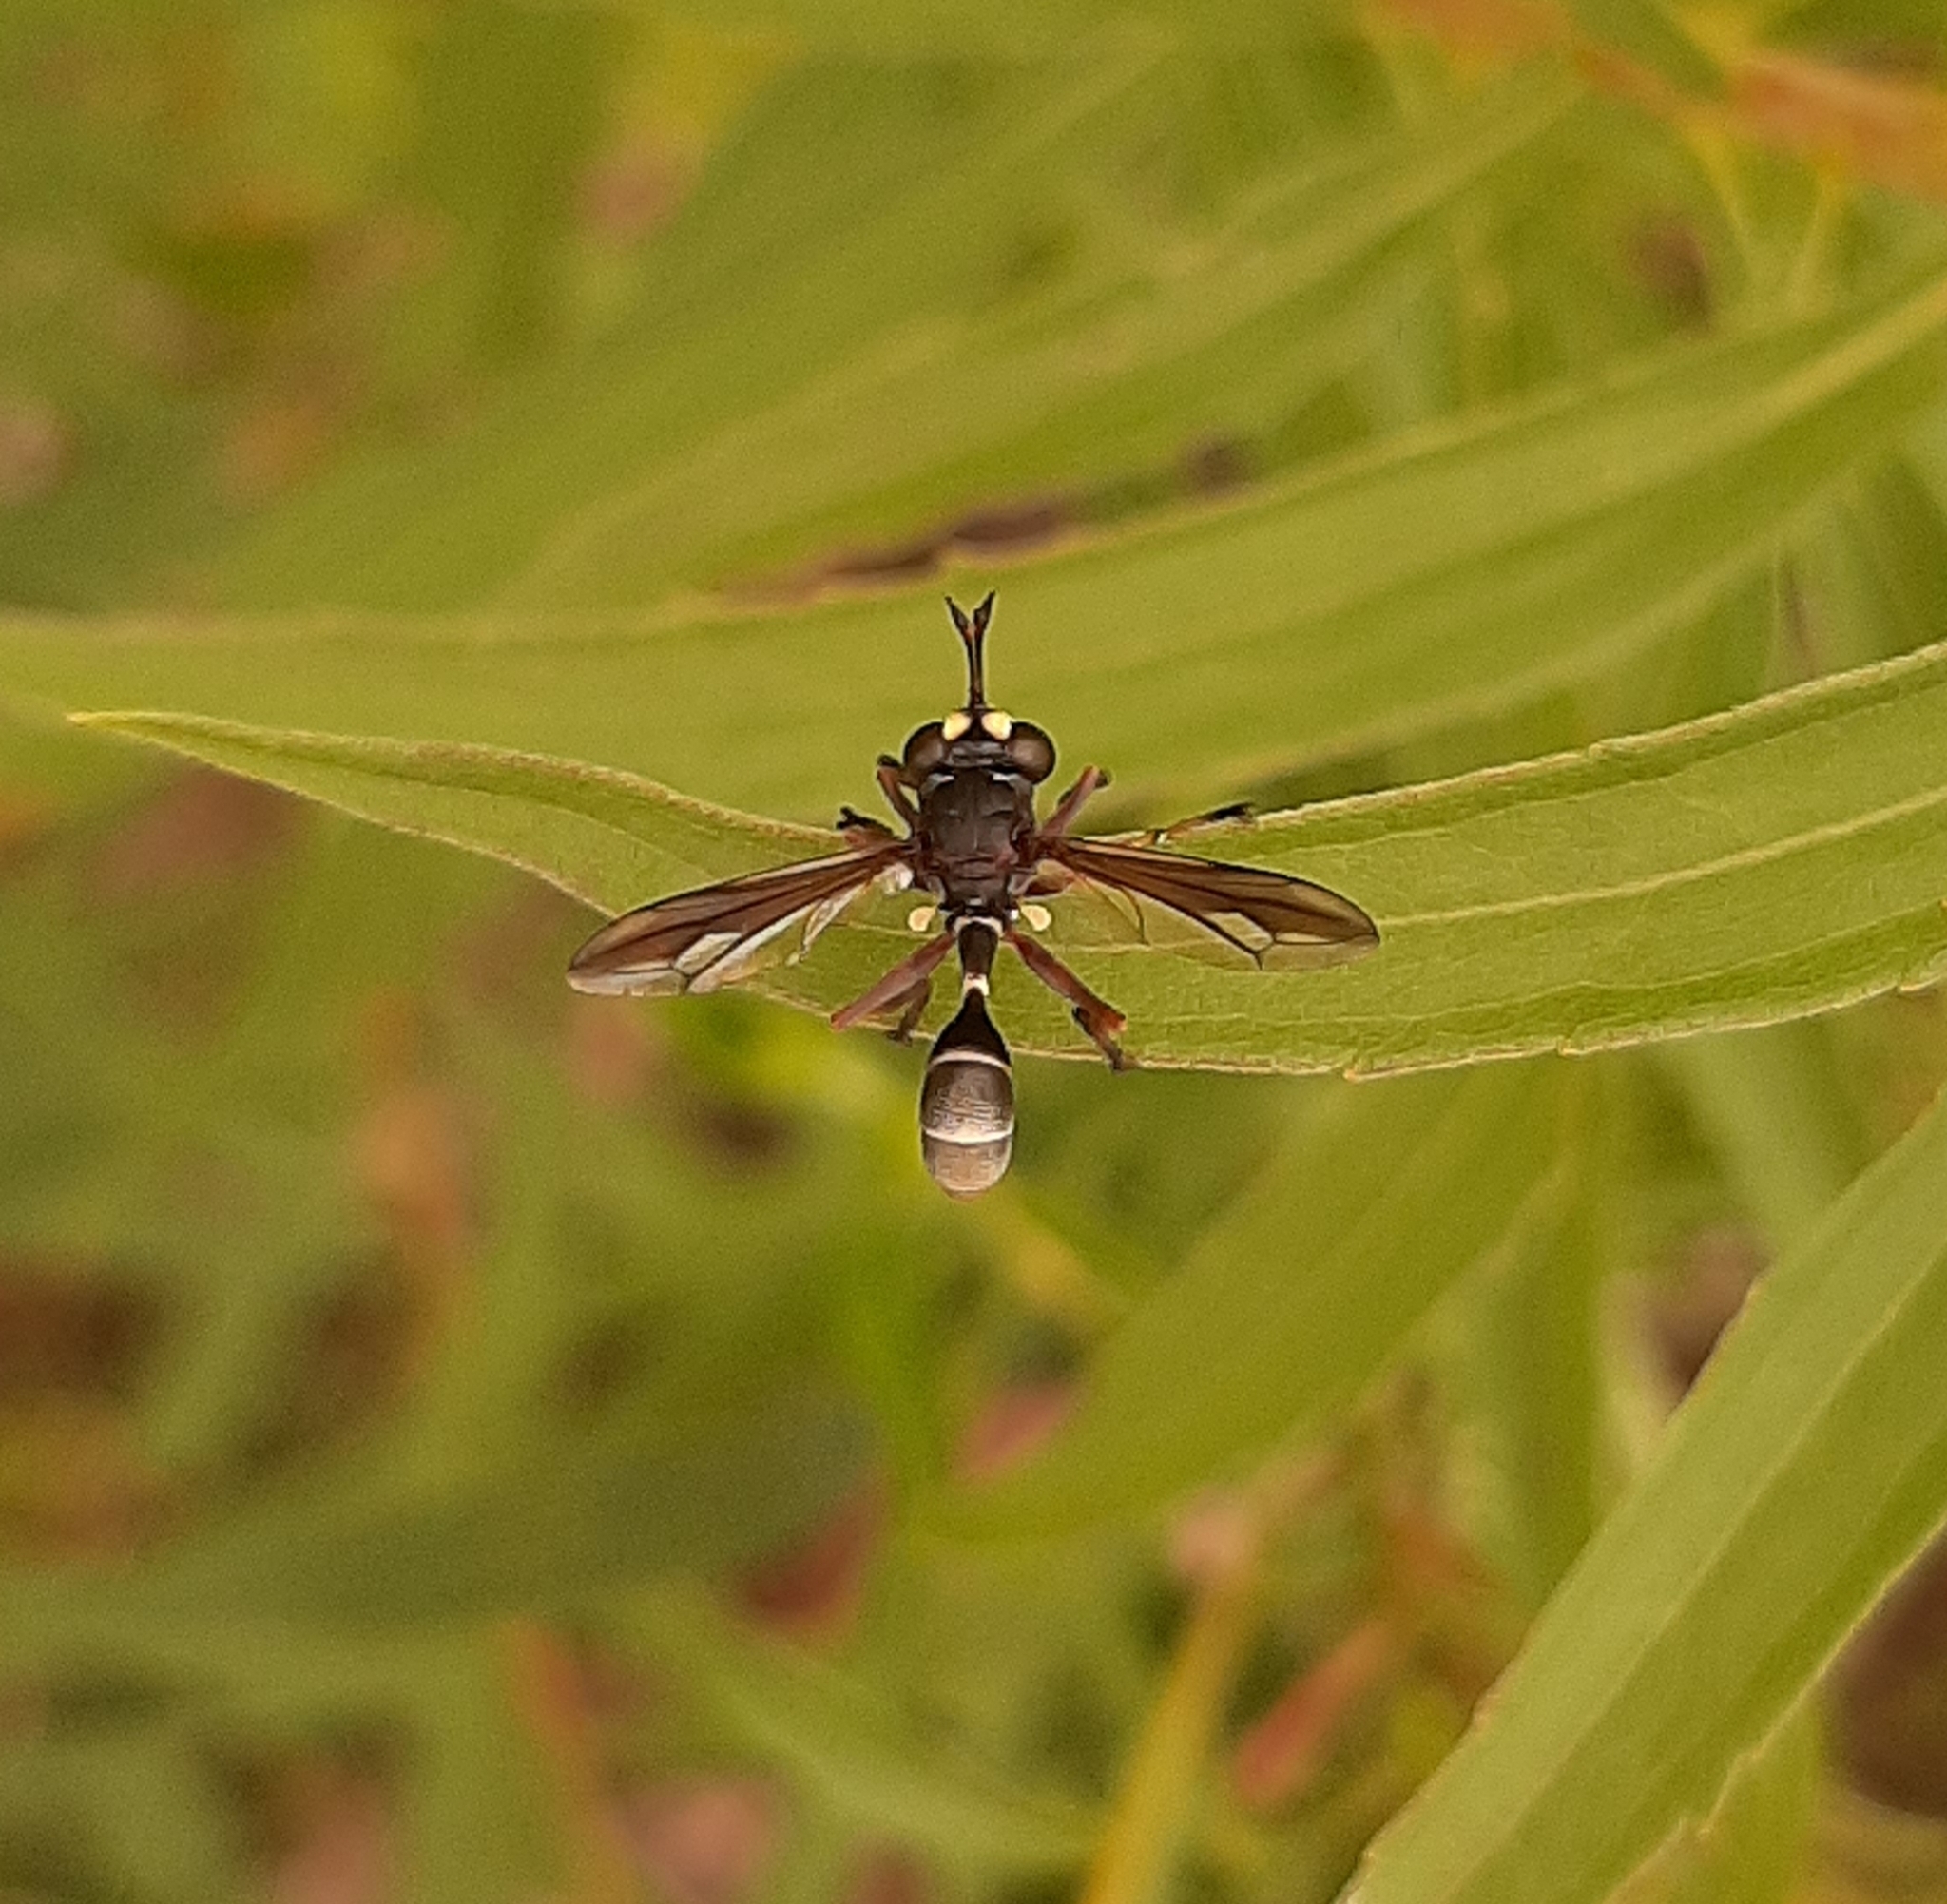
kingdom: Animalia
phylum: Arthropoda
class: Insecta
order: Diptera
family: Conopidae
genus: Physocephala
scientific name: Physocephala furcillata
